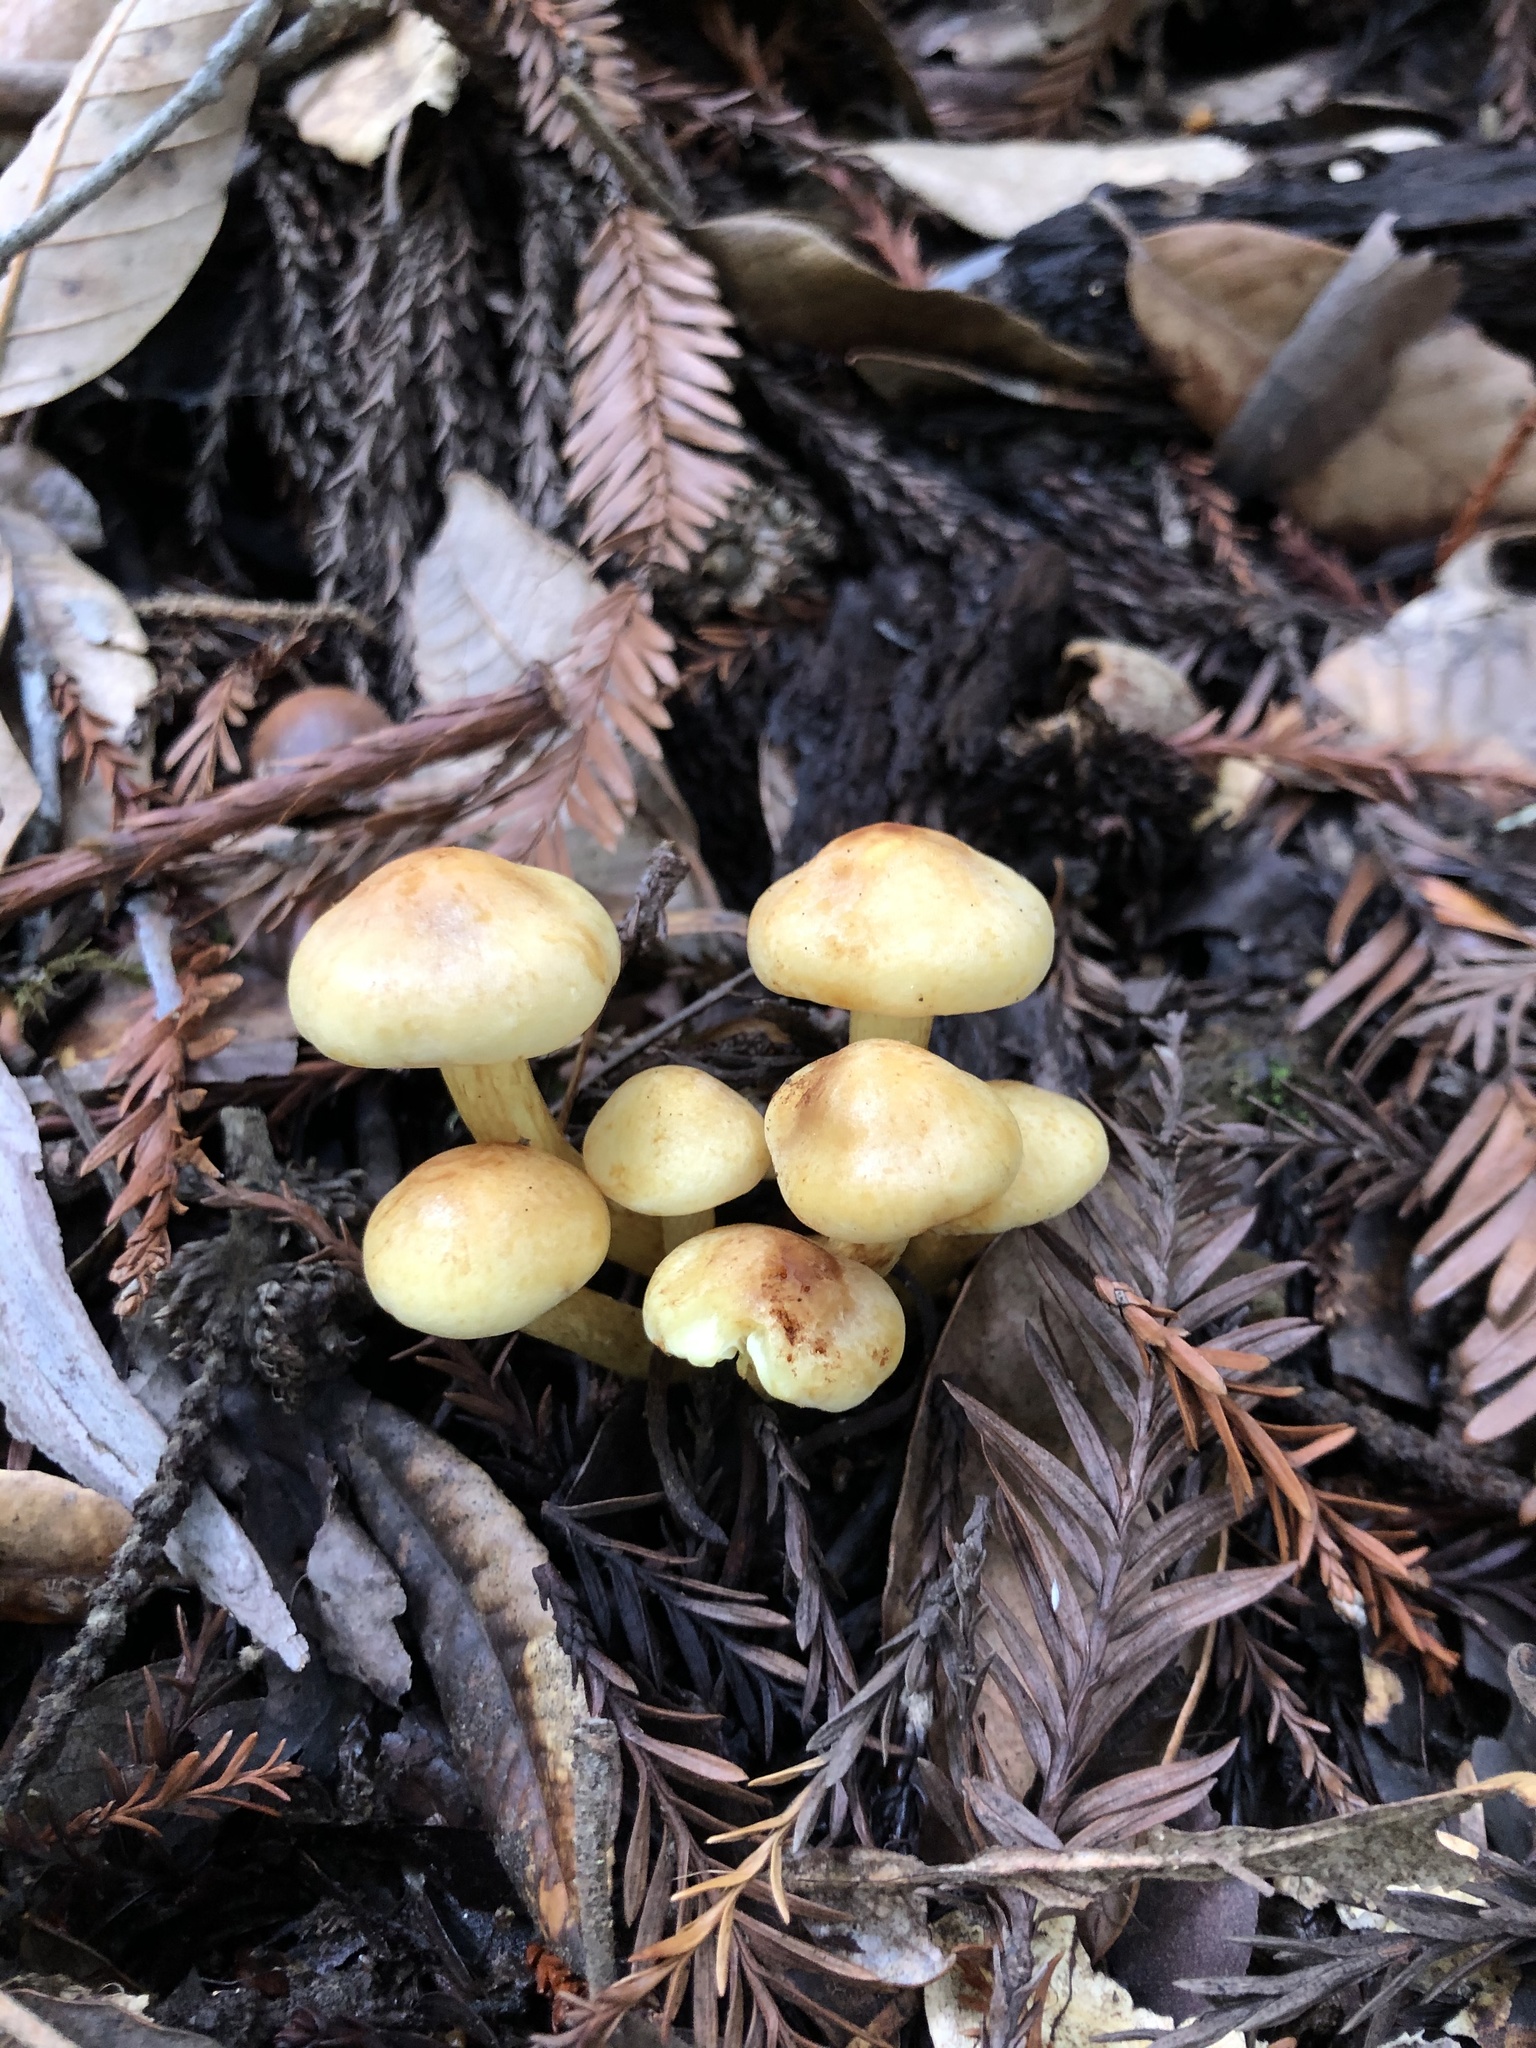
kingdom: Fungi
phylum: Basidiomycota
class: Agaricomycetes
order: Agaricales
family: Strophariaceae
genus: Hypholoma
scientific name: Hypholoma fasciculare
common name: Sulphur tuft
